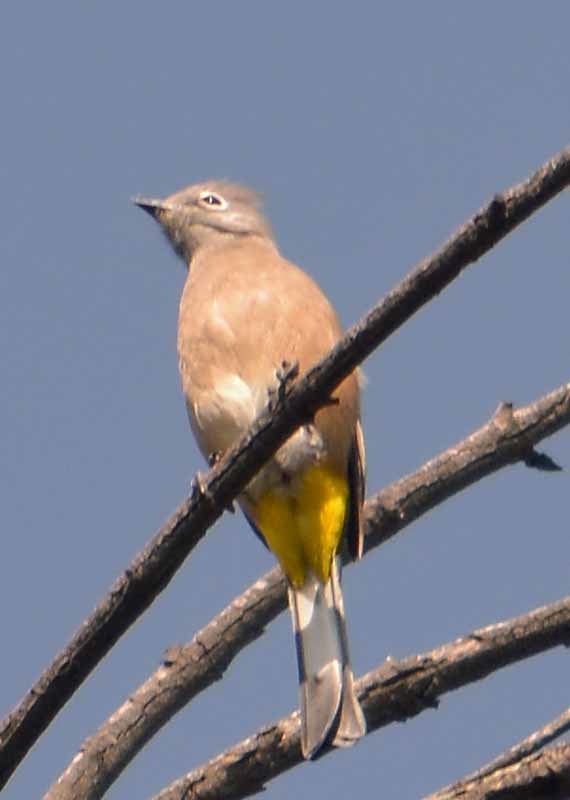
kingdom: Animalia
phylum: Chordata
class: Aves
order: Passeriformes
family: Ptilogonatidae
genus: Ptilogonys
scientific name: Ptilogonys cinereus
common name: Gray silky-flycatcher
